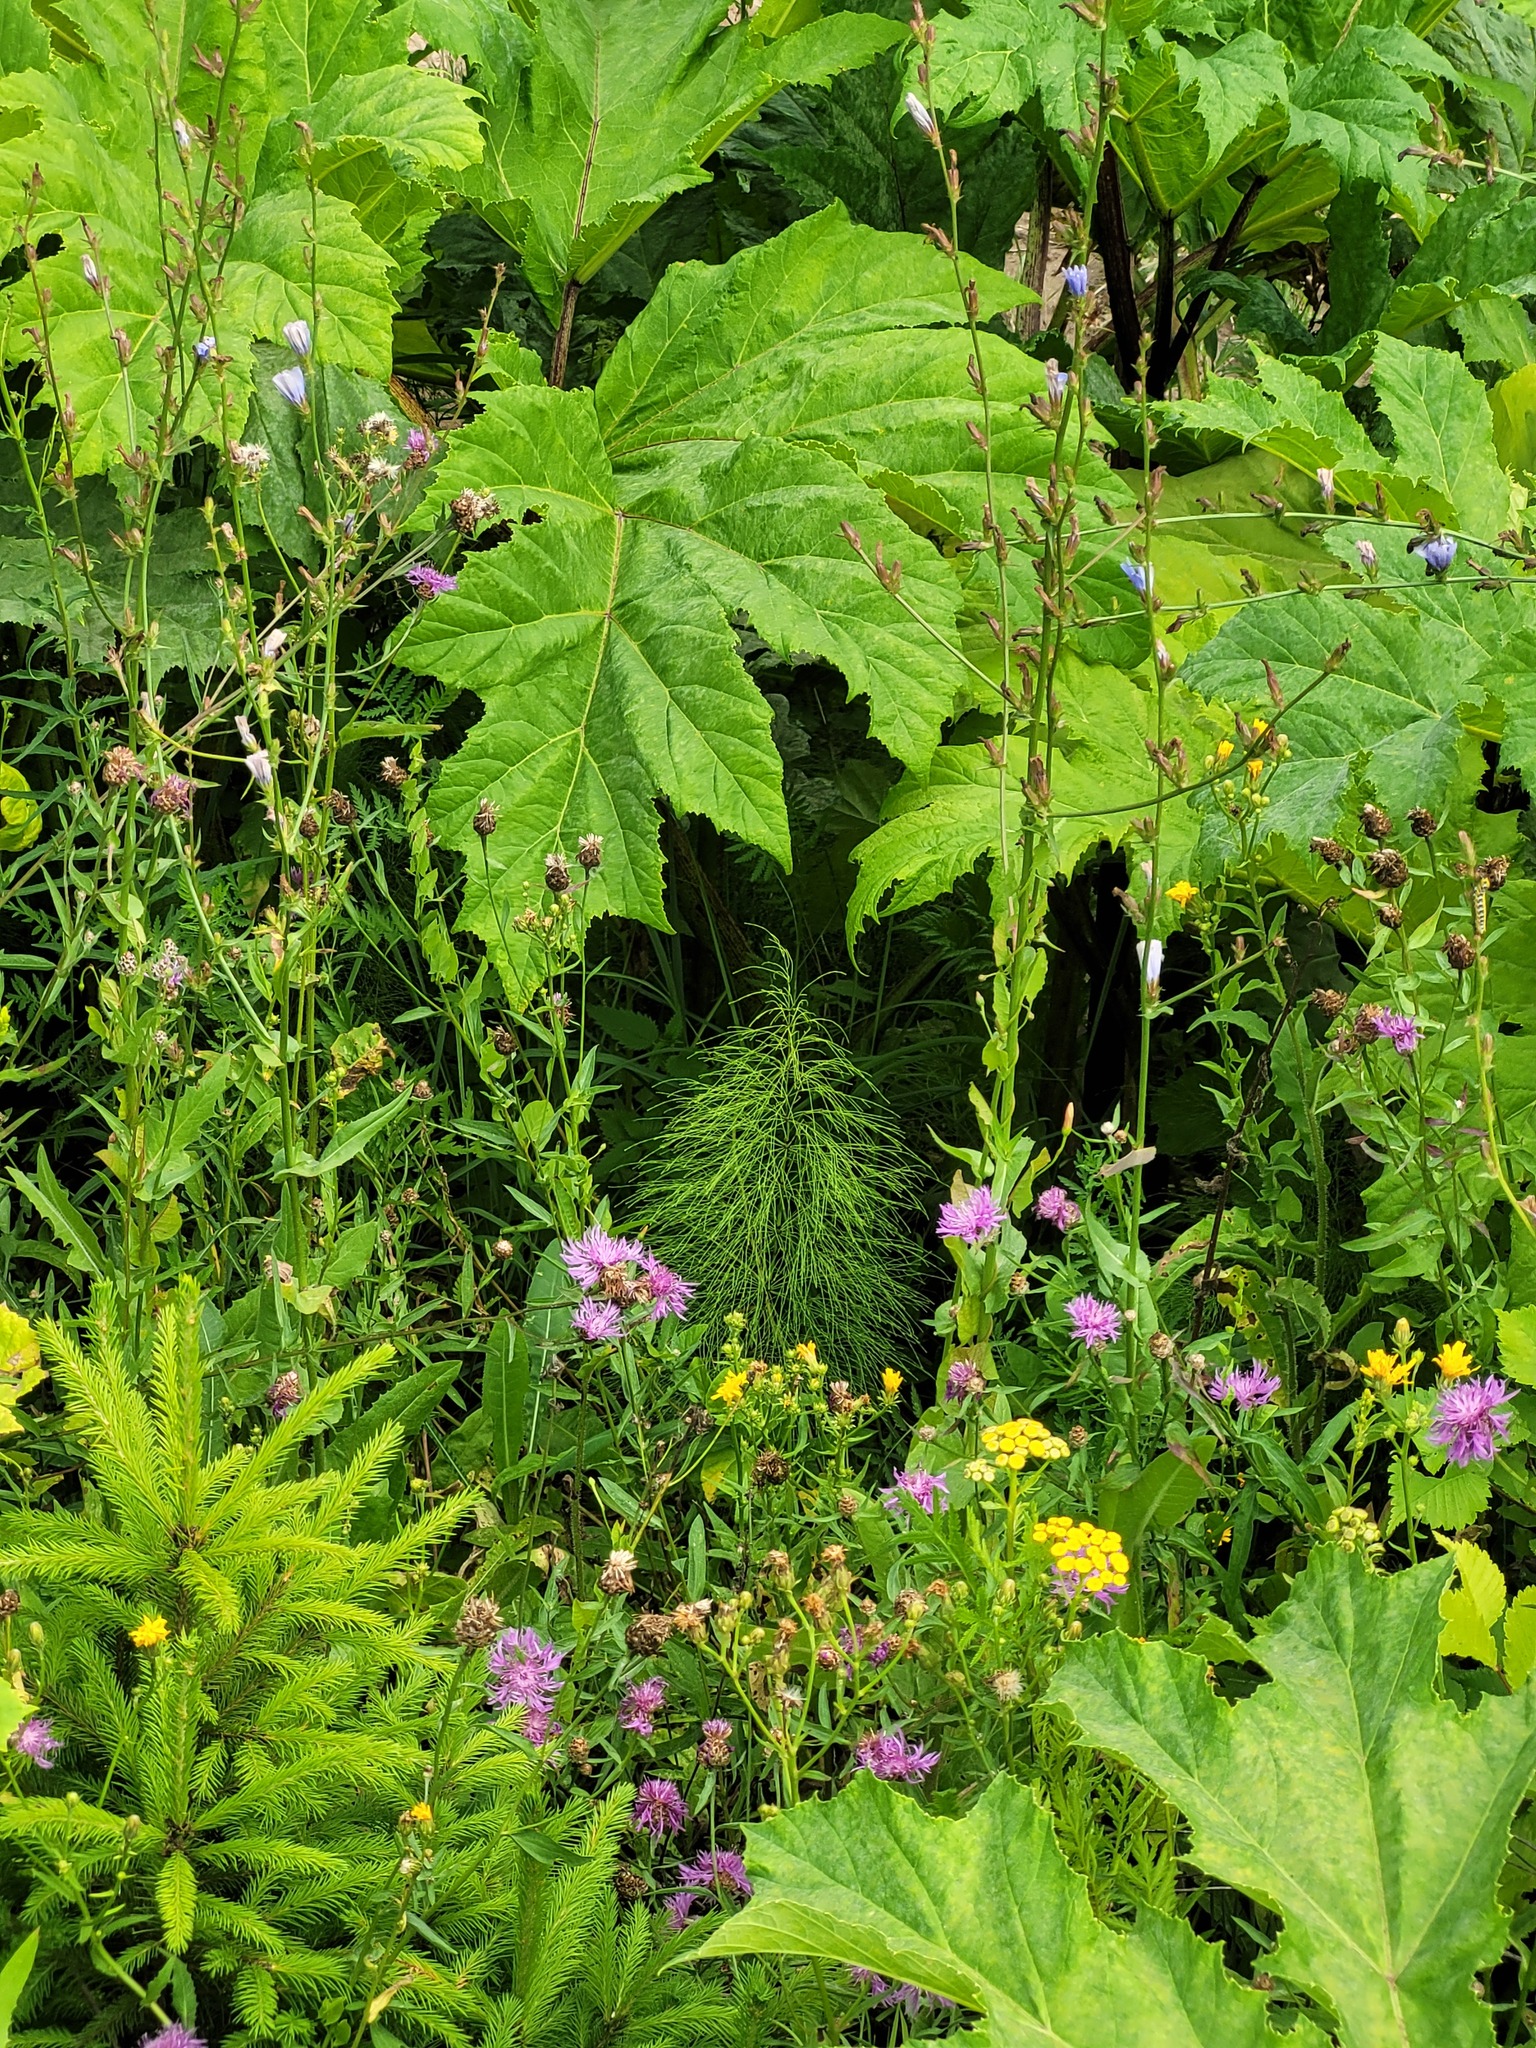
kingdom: Plantae
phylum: Tracheophyta
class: Polypodiopsida
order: Equisetales
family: Equisetaceae
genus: Equisetum
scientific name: Equisetum sylvaticum
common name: Wood horsetail
